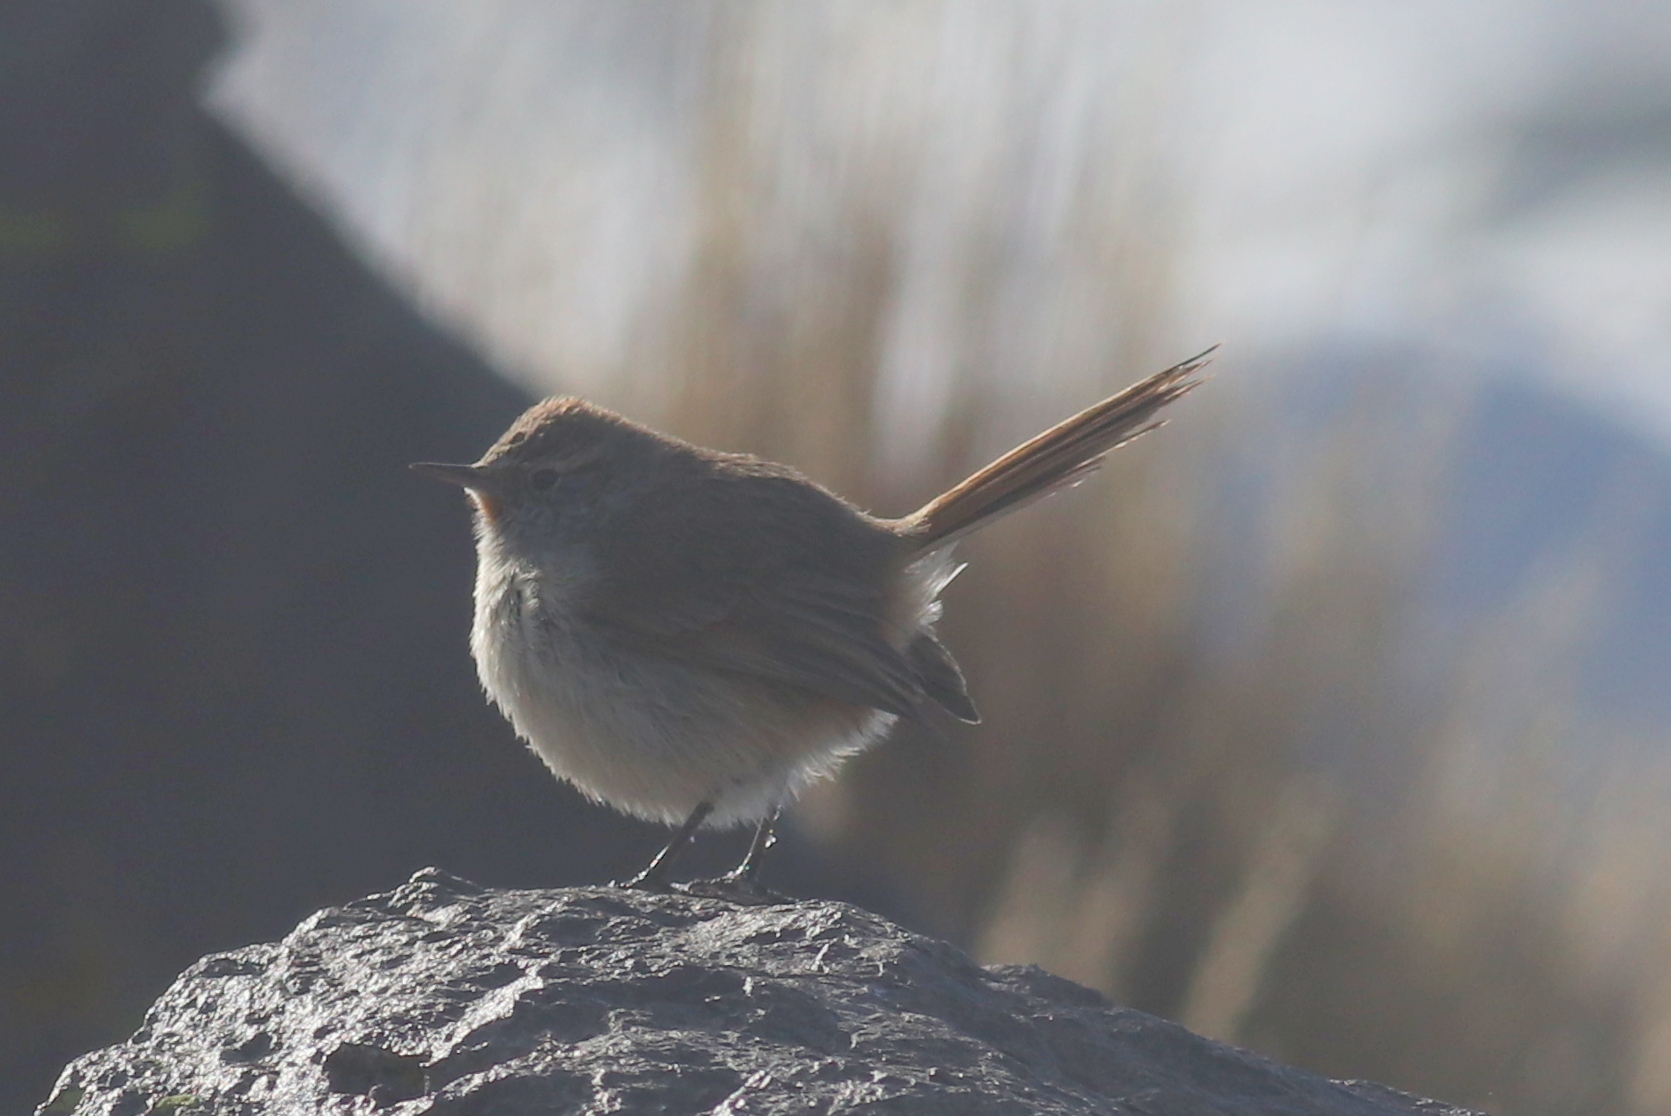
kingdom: Animalia
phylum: Chordata
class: Aves
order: Passeriformes
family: Furnariidae
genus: Asthenes
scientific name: Asthenes modesta
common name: Cordilleran canastero
